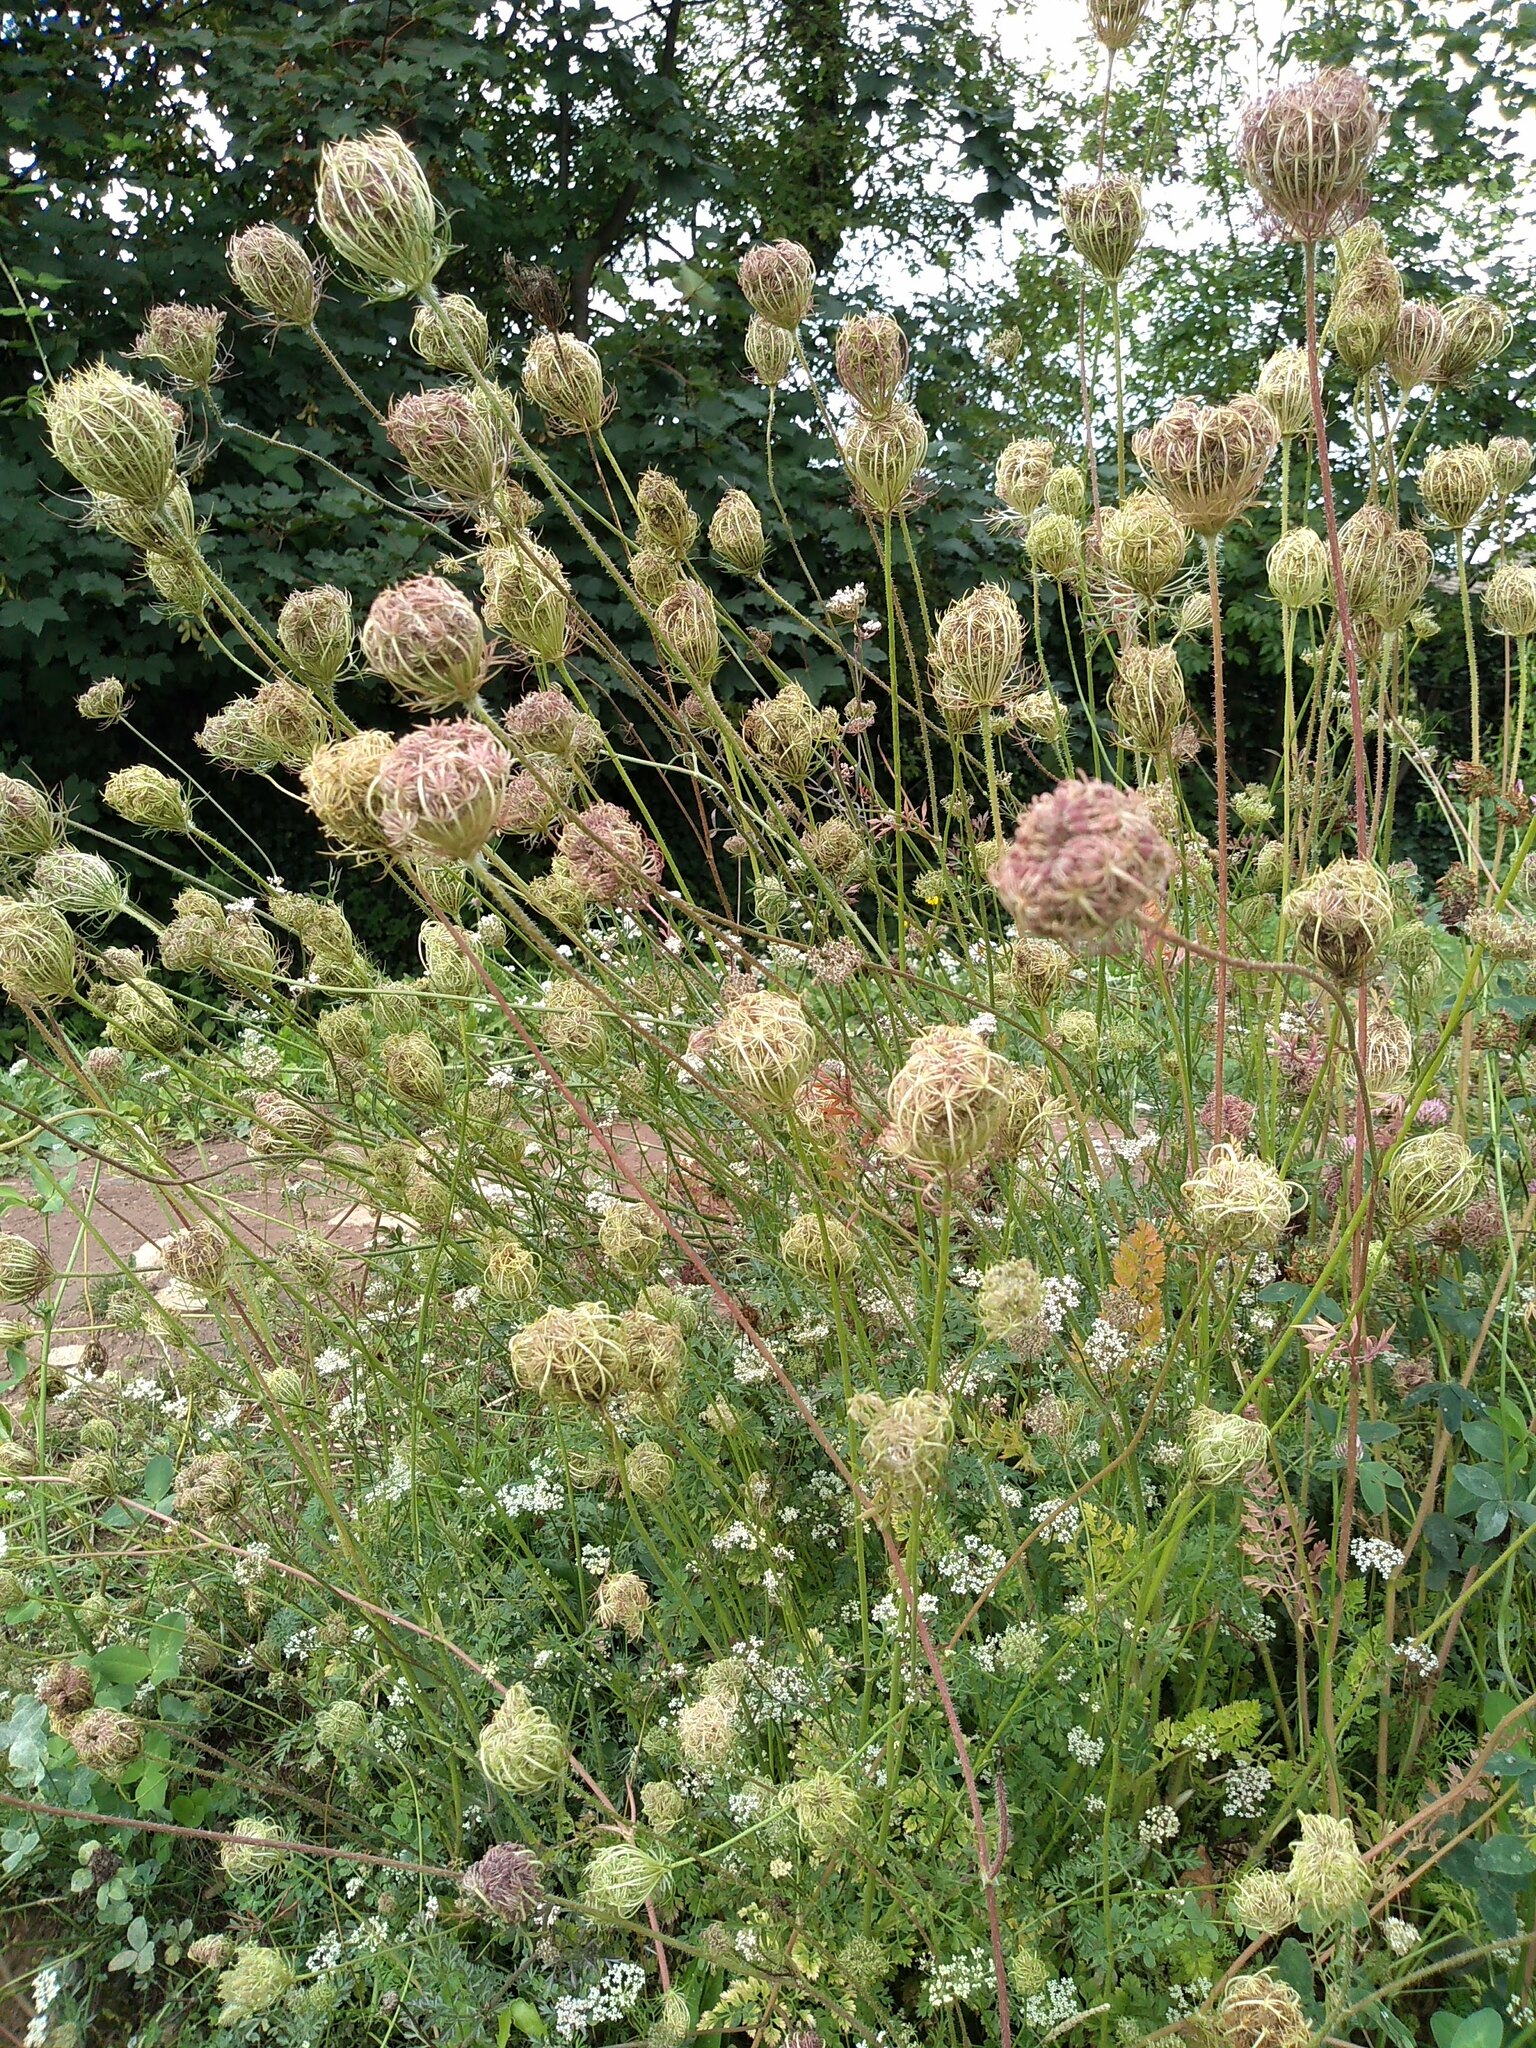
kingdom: Plantae
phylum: Tracheophyta
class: Magnoliopsida
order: Apiales
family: Apiaceae
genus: Daucus
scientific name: Daucus carota
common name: Wild carrot
